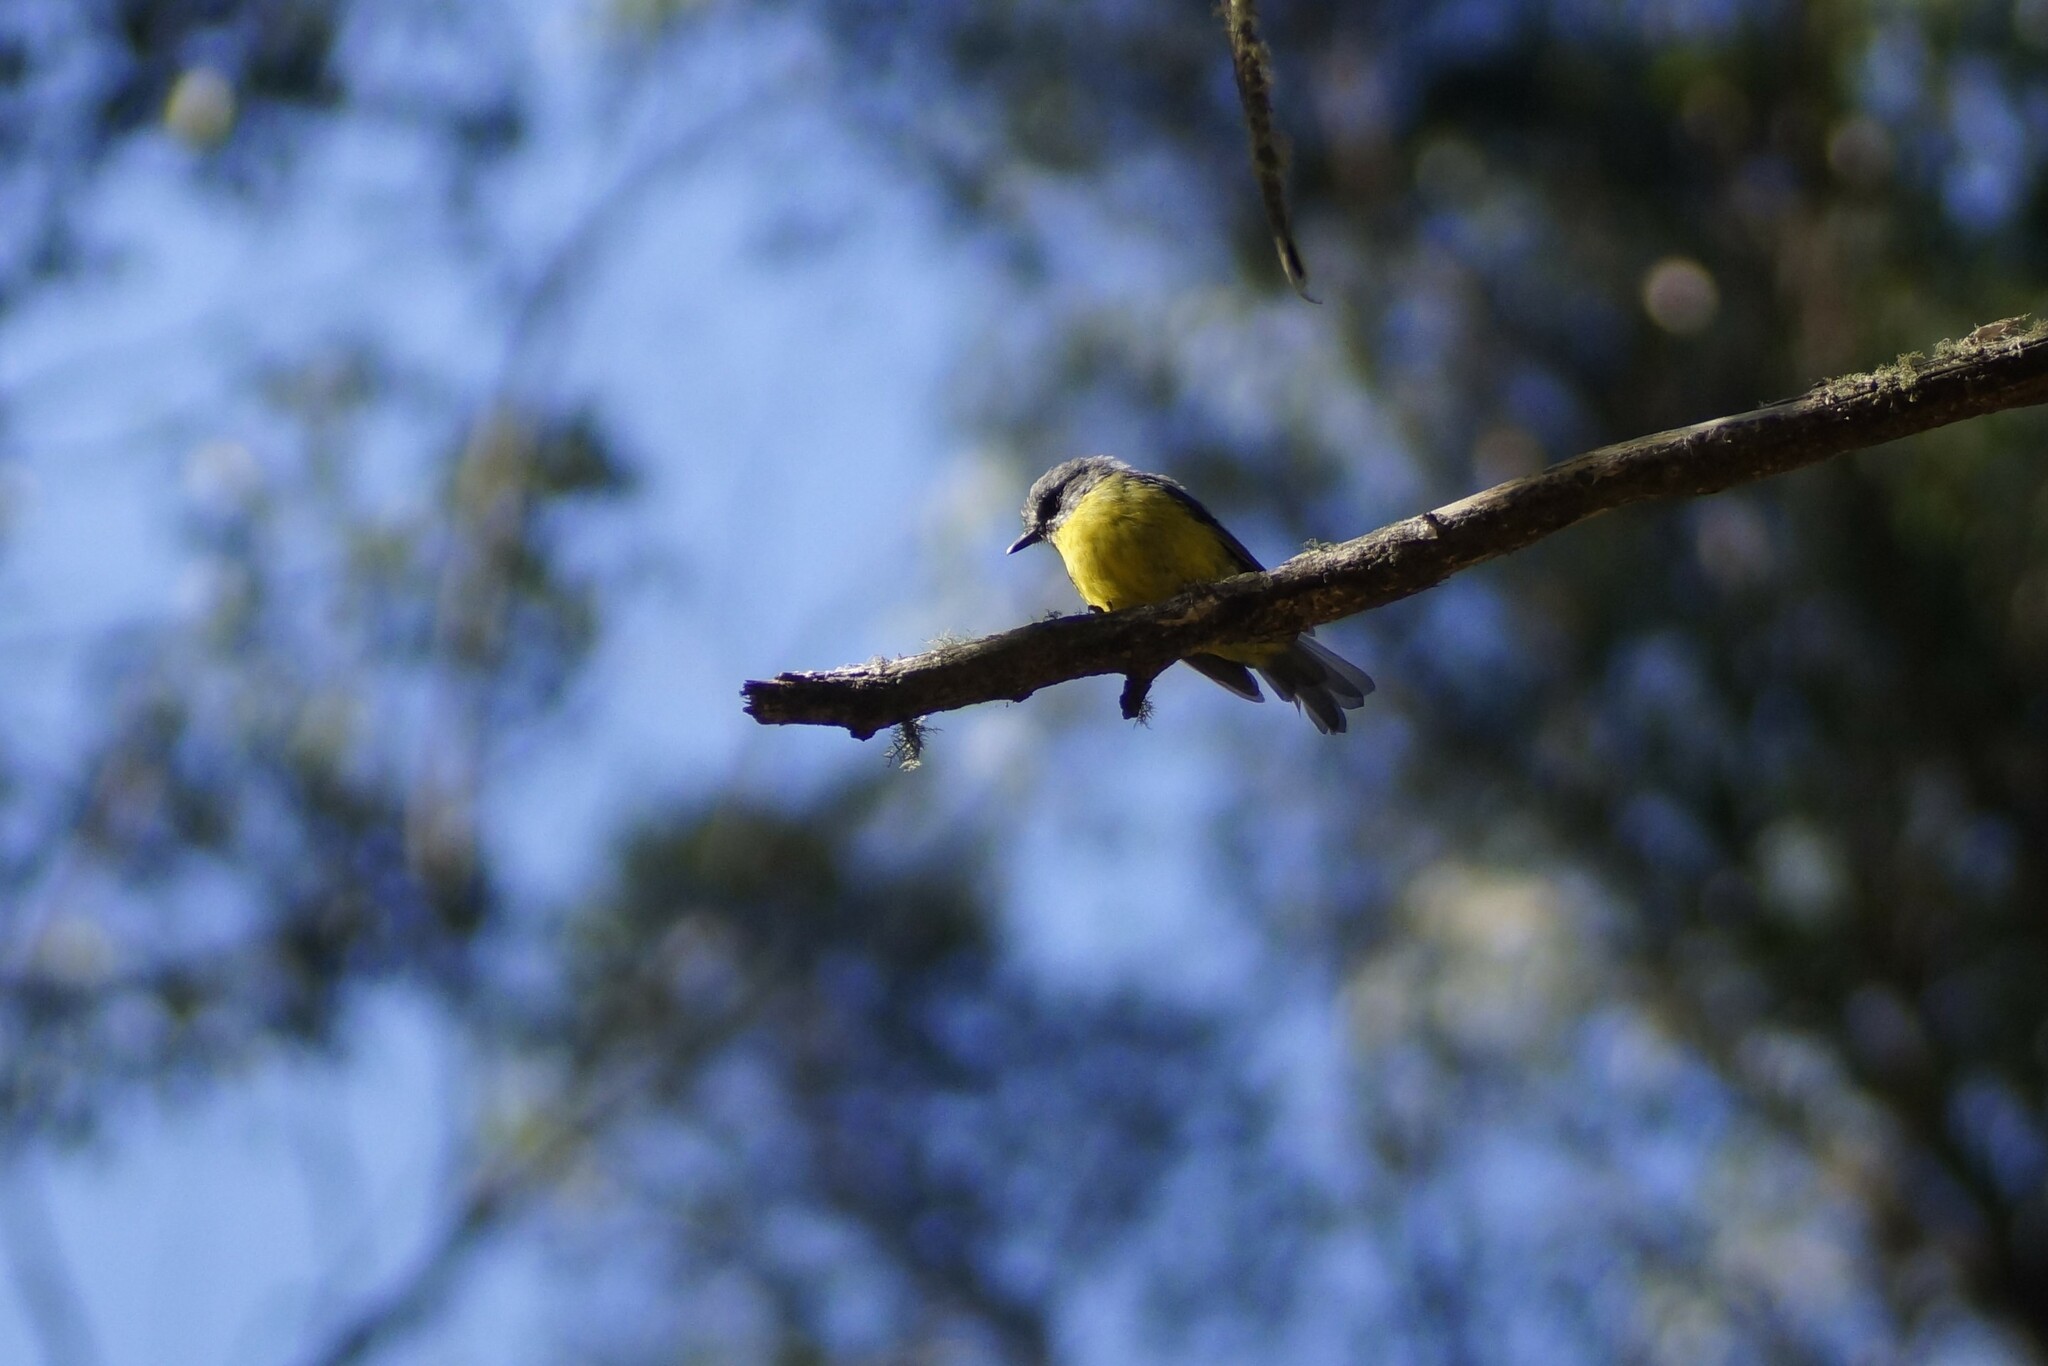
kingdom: Animalia
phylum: Chordata
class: Aves
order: Passeriformes
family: Petroicidae
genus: Eopsaltria
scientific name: Eopsaltria australis
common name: Eastern yellow robin
